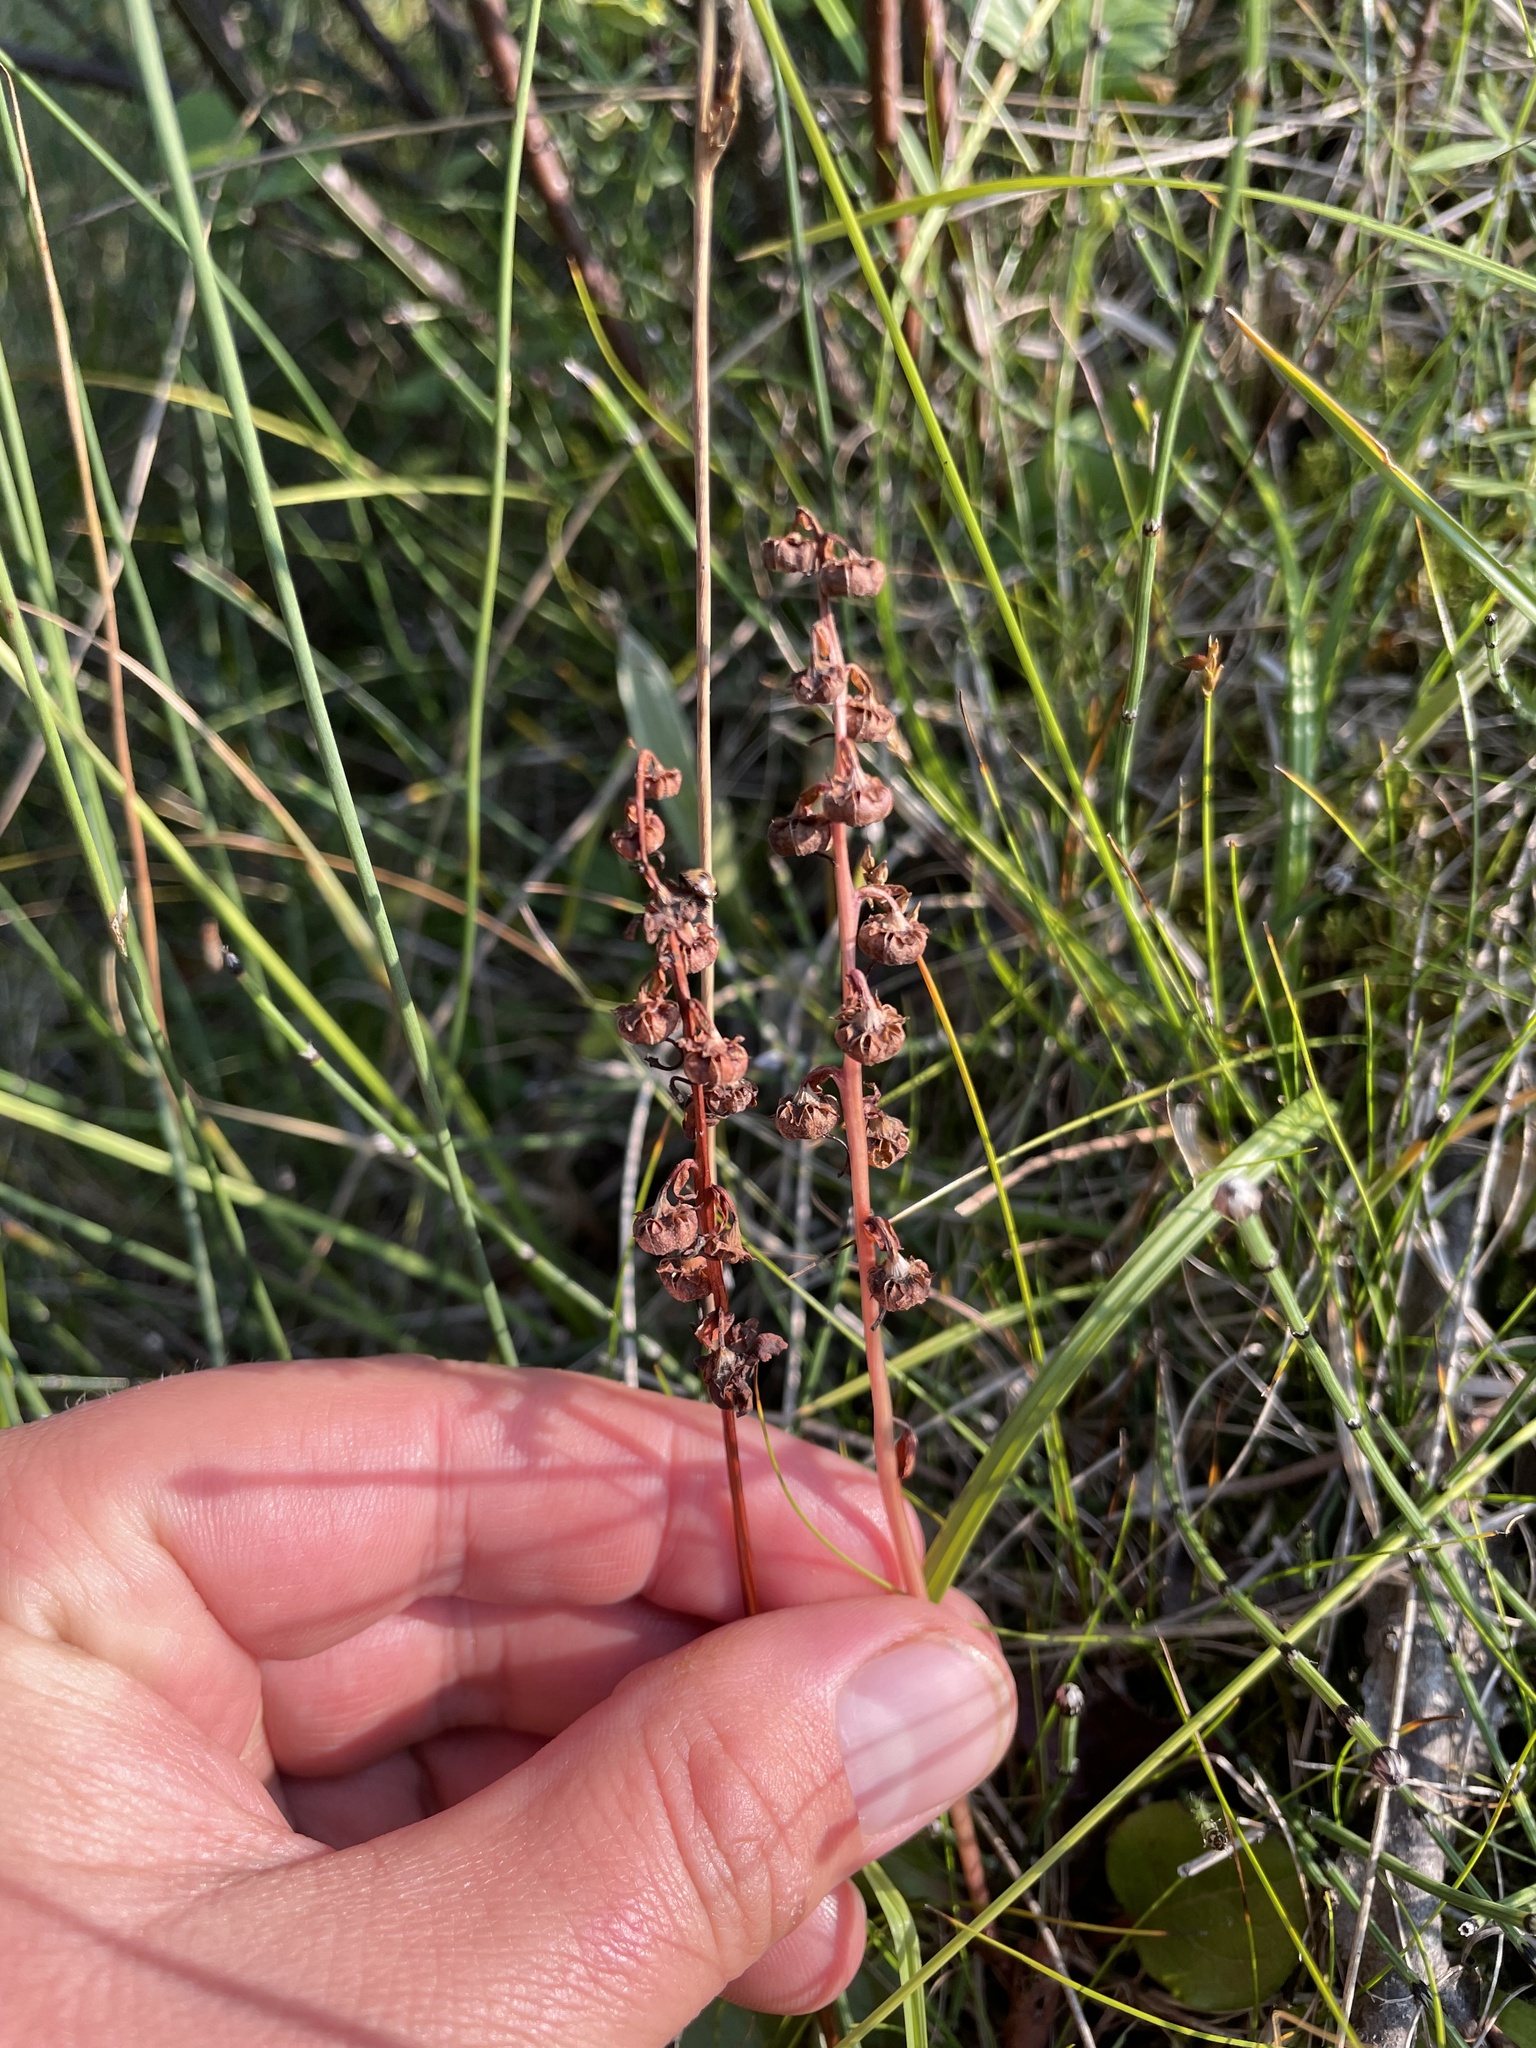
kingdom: Plantae
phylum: Tracheophyta
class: Magnoliopsida
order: Ericales
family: Ericaceae
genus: Pyrola
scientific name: Pyrola asarifolia
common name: Bog wintergreen
